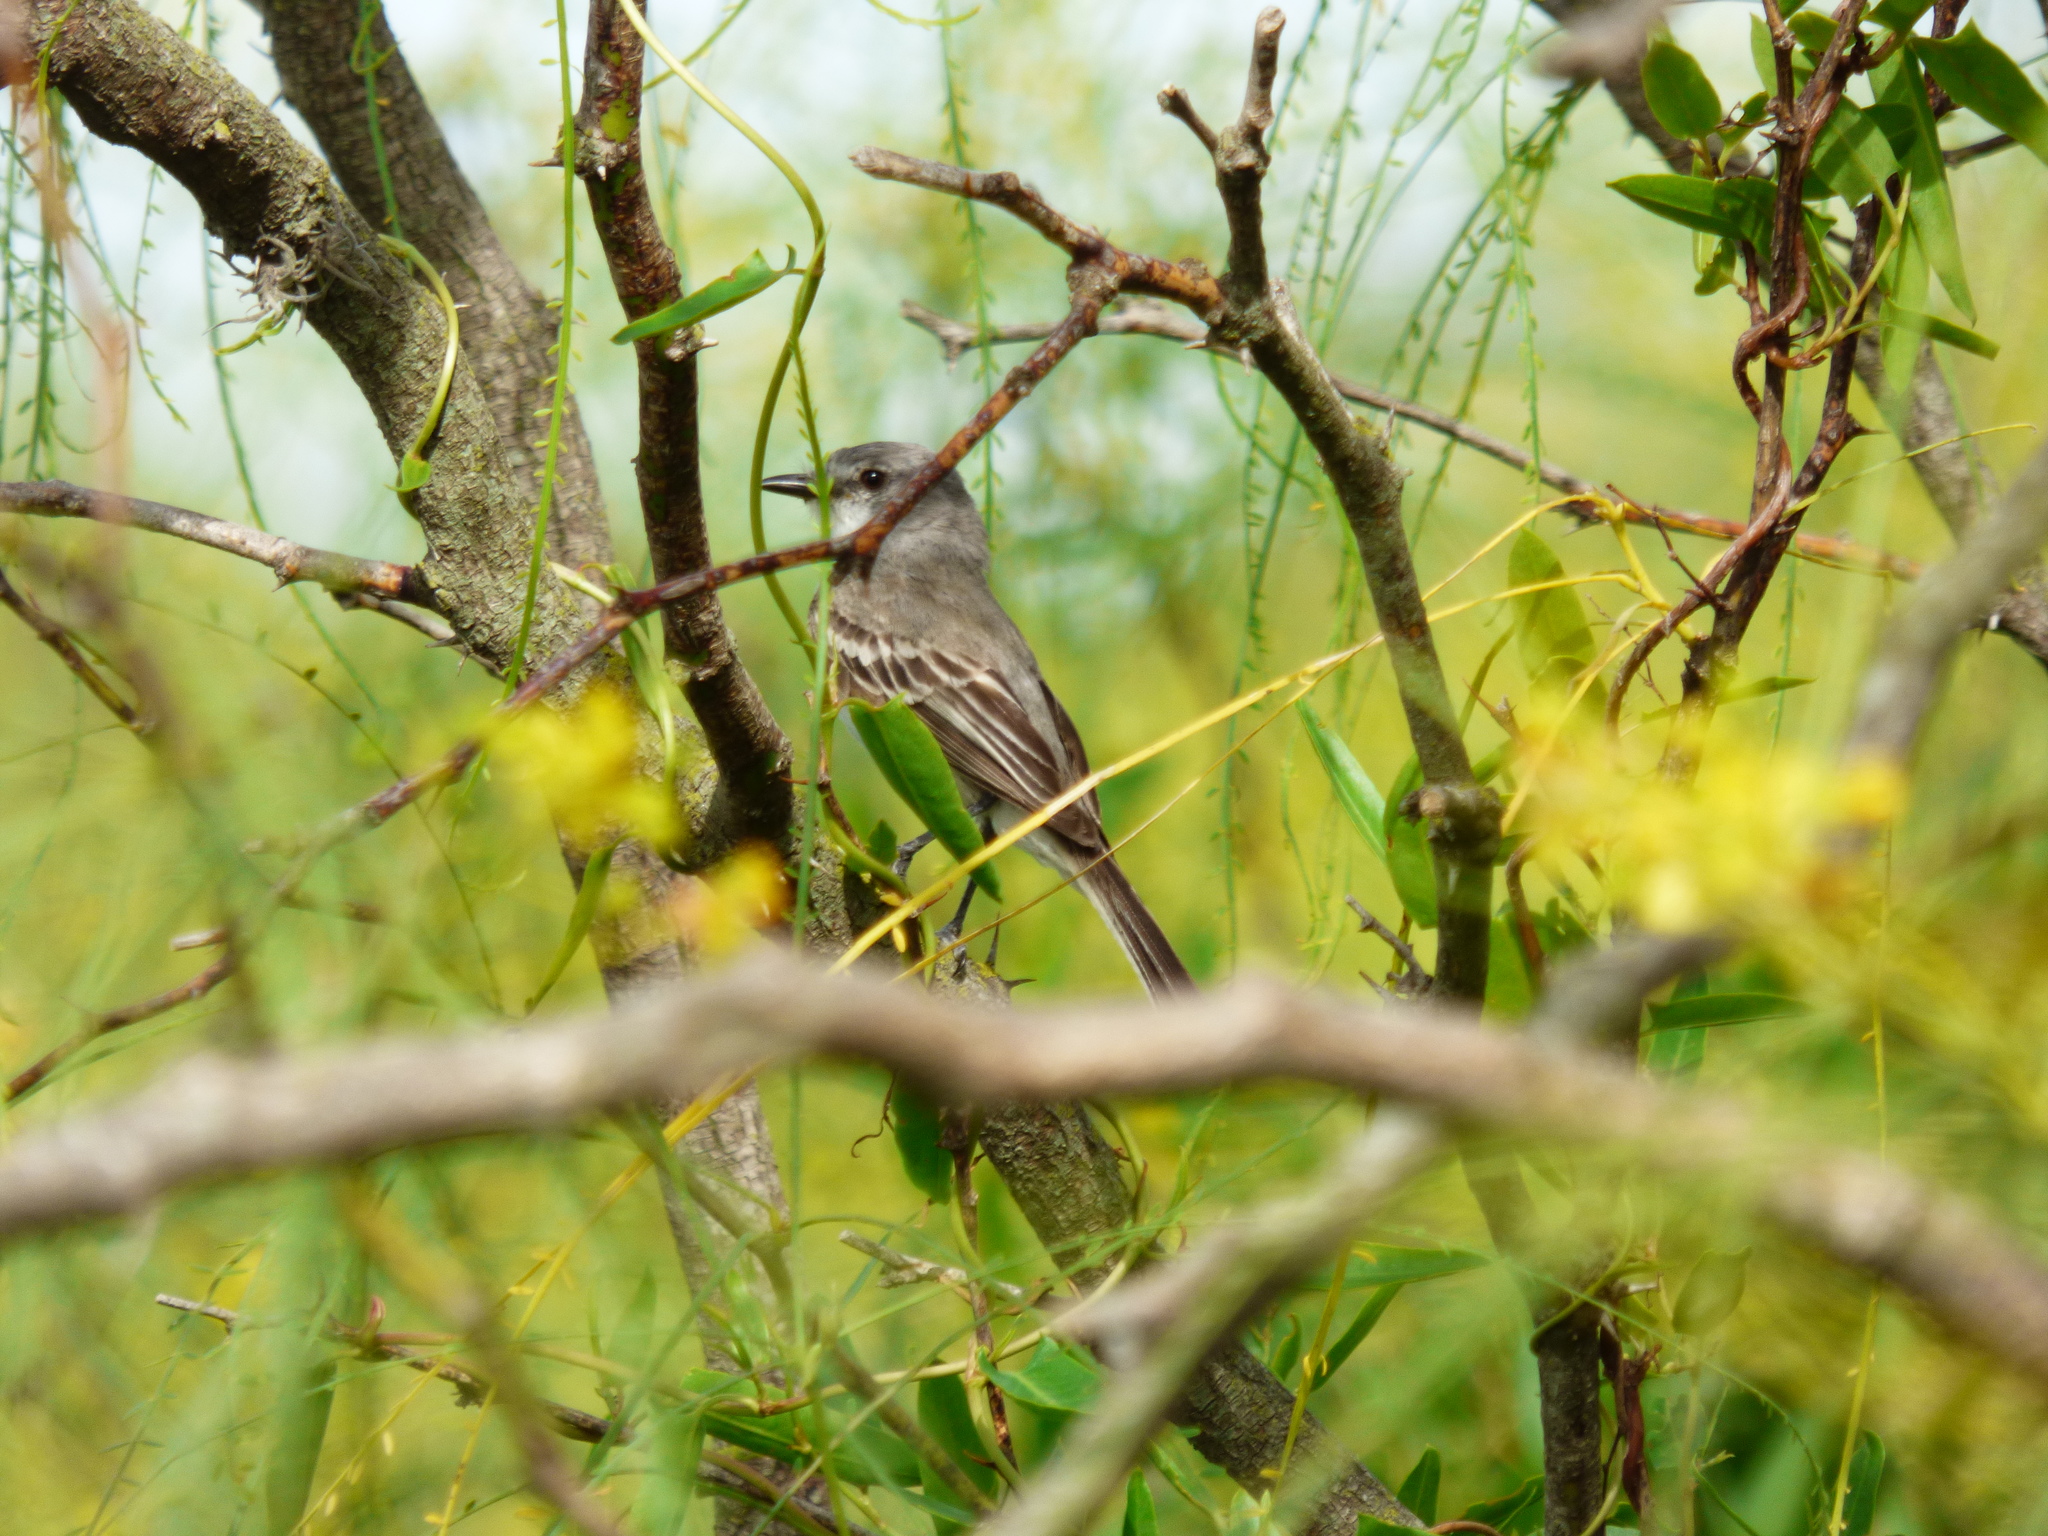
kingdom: Animalia
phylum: Chordata
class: Aves
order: Passeriformes
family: Tyrannidae
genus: Suiriri
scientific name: Suiriri suiriri
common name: Suiriri flycatcher
